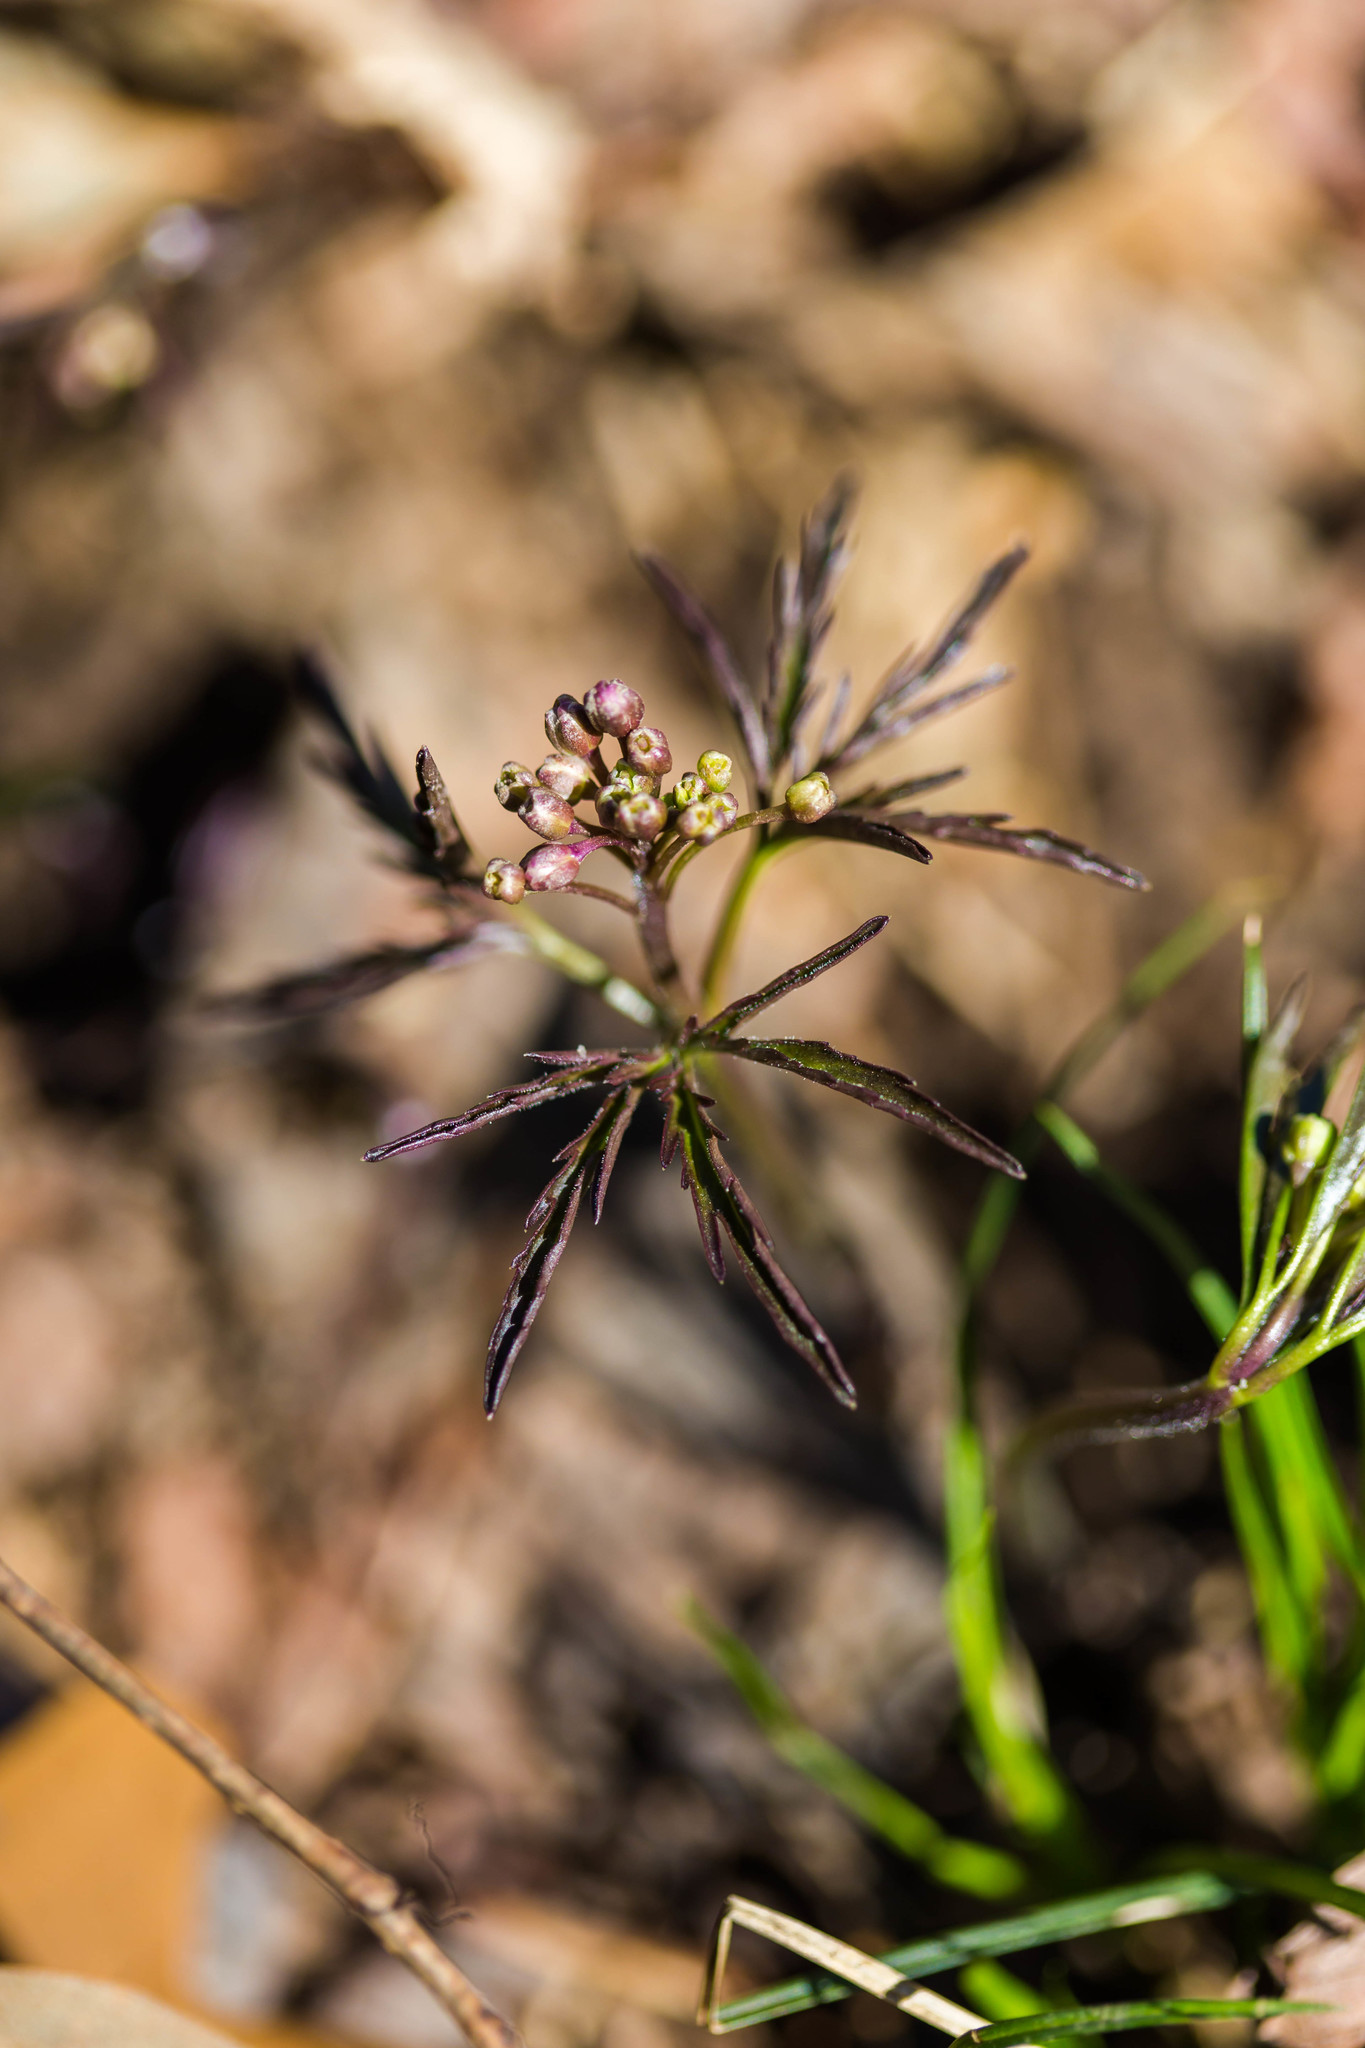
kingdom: Plantae
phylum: Tracheophyta
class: Magnoliopsida
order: Brassicales
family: Brassicaceae
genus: Cardamine
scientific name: Cardamine concatenata
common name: Cut-leaf toothcup
